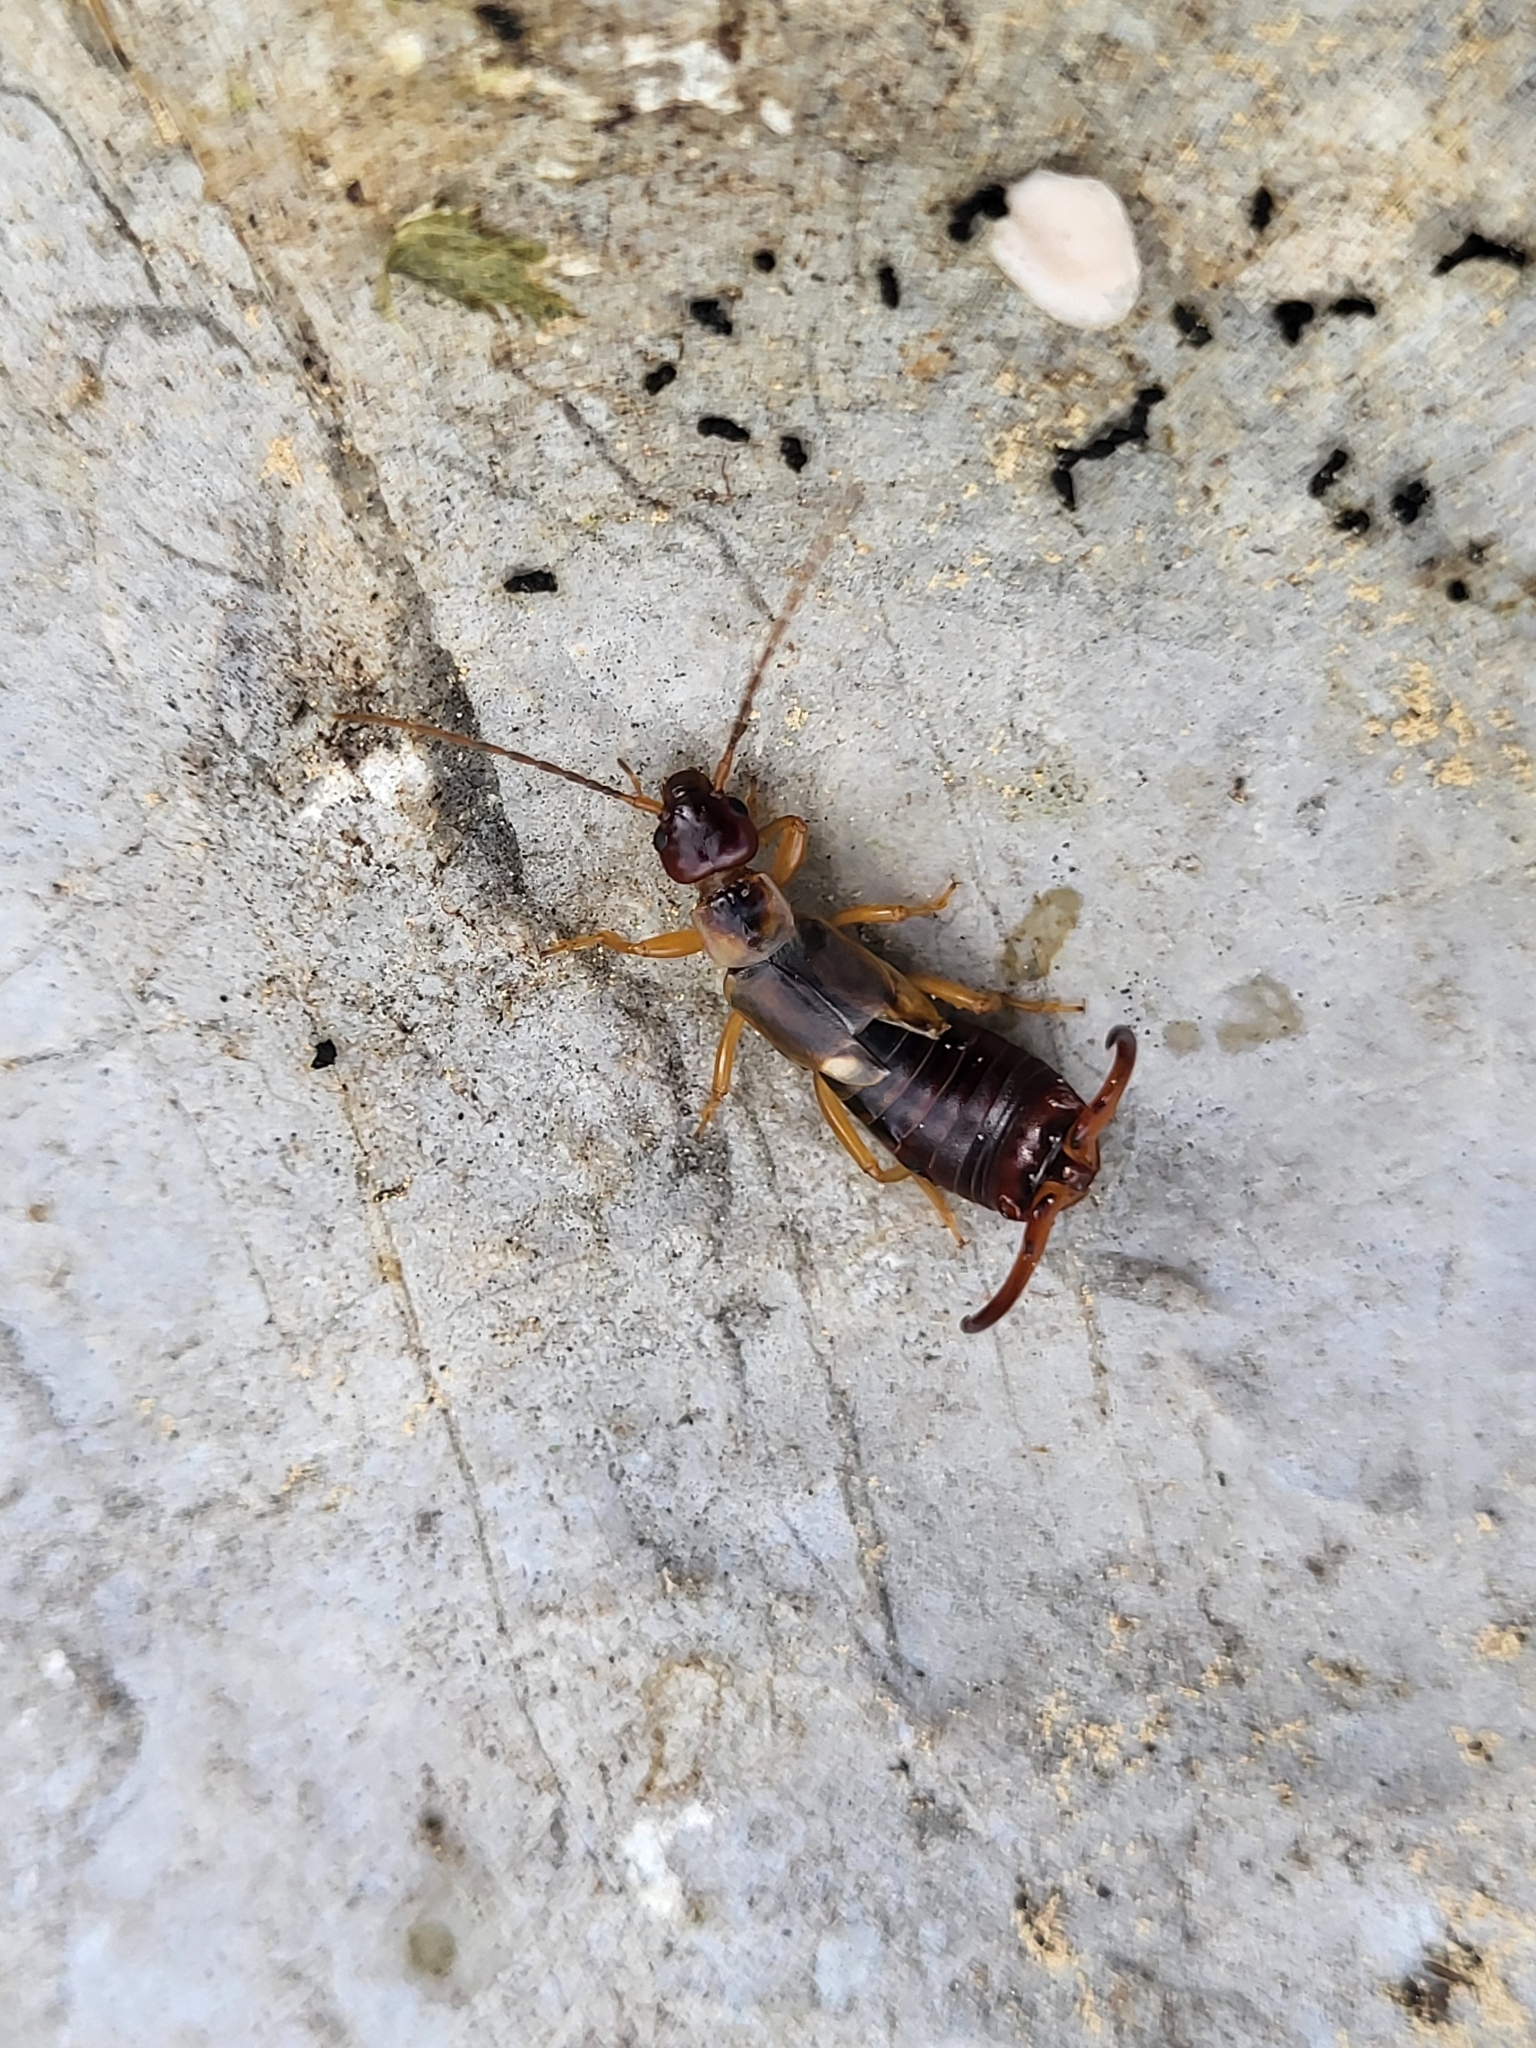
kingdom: Animalia
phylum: Arthropoda
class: Insecta
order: Dermaptera
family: Forficulidae
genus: Forficula
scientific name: Forficula
